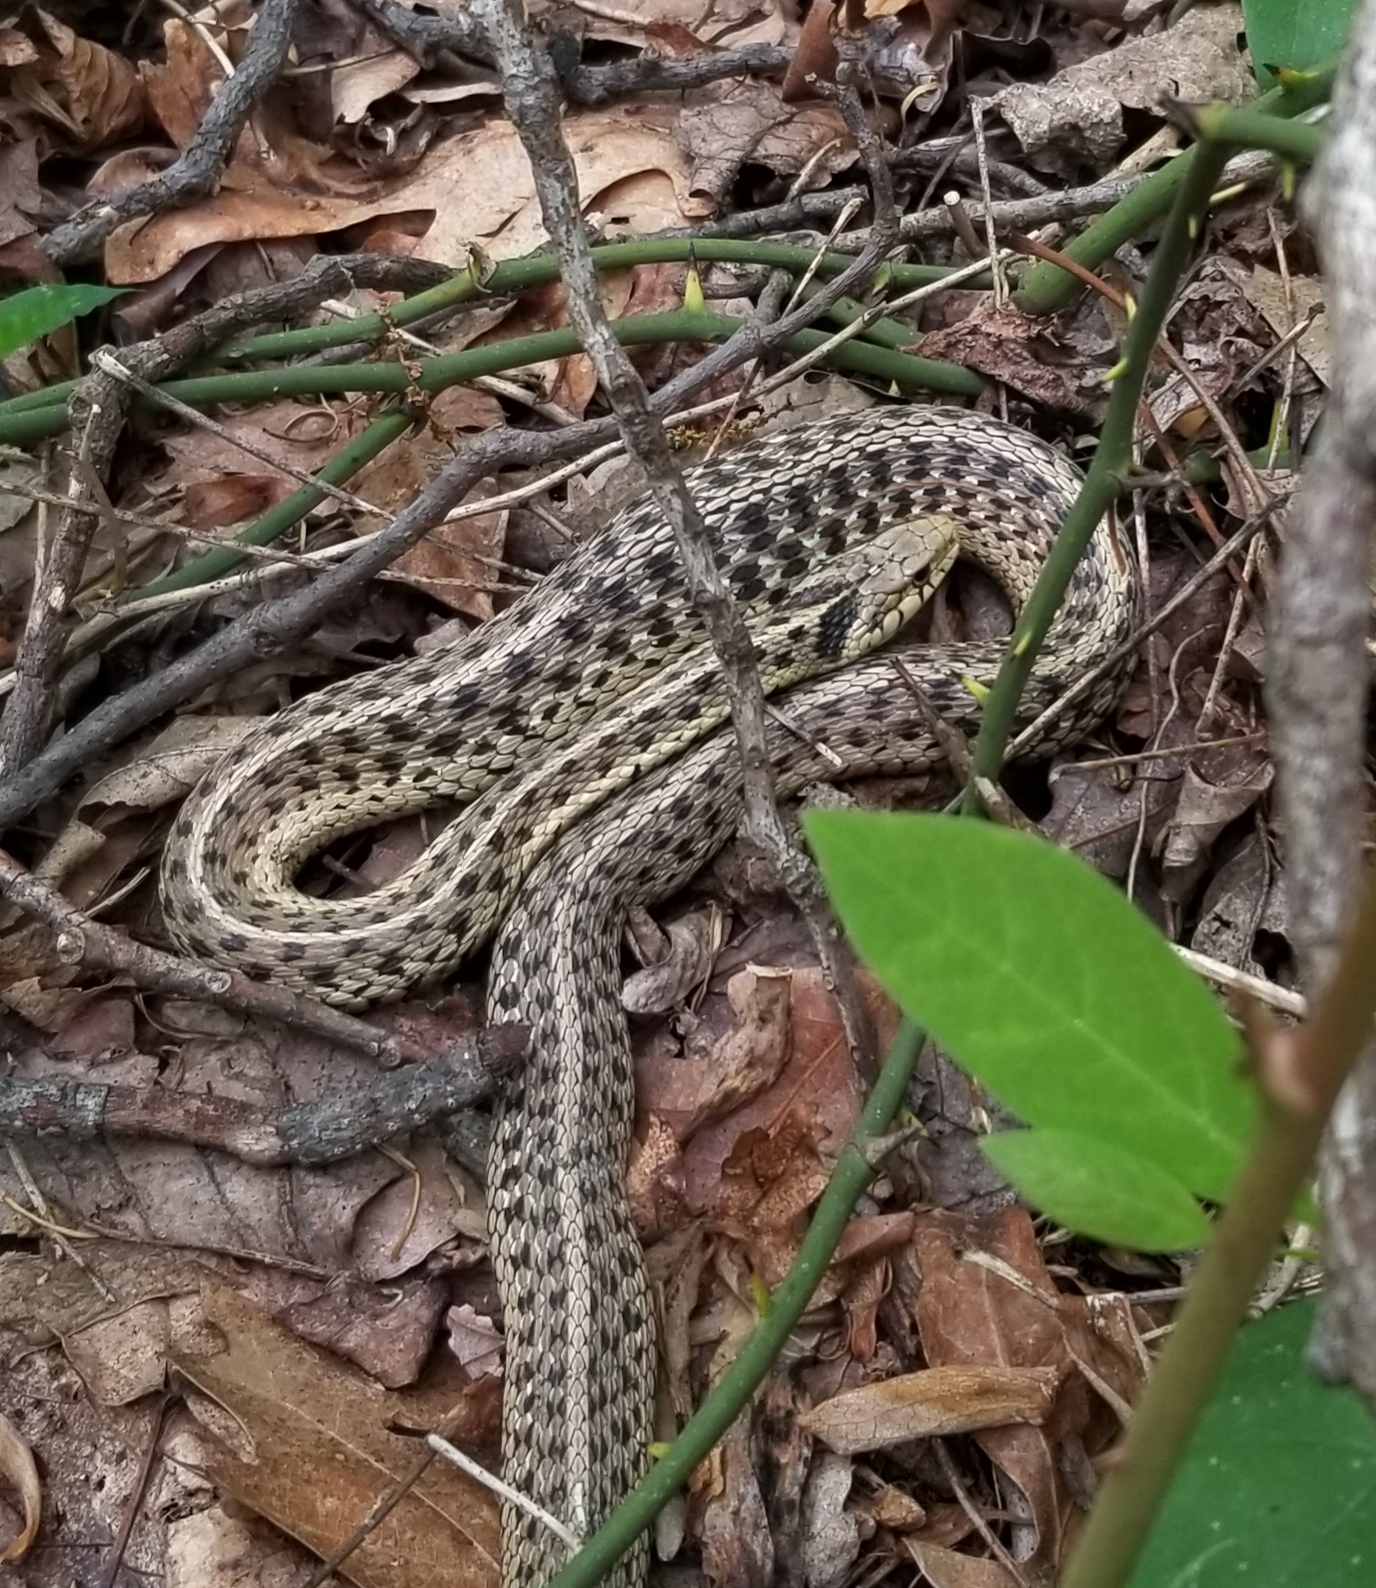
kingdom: Animalia
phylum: Chordata
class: Squamata
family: Colubridae
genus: Thamnophis
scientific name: Thamnophis sirtalis
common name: Common garter snake
